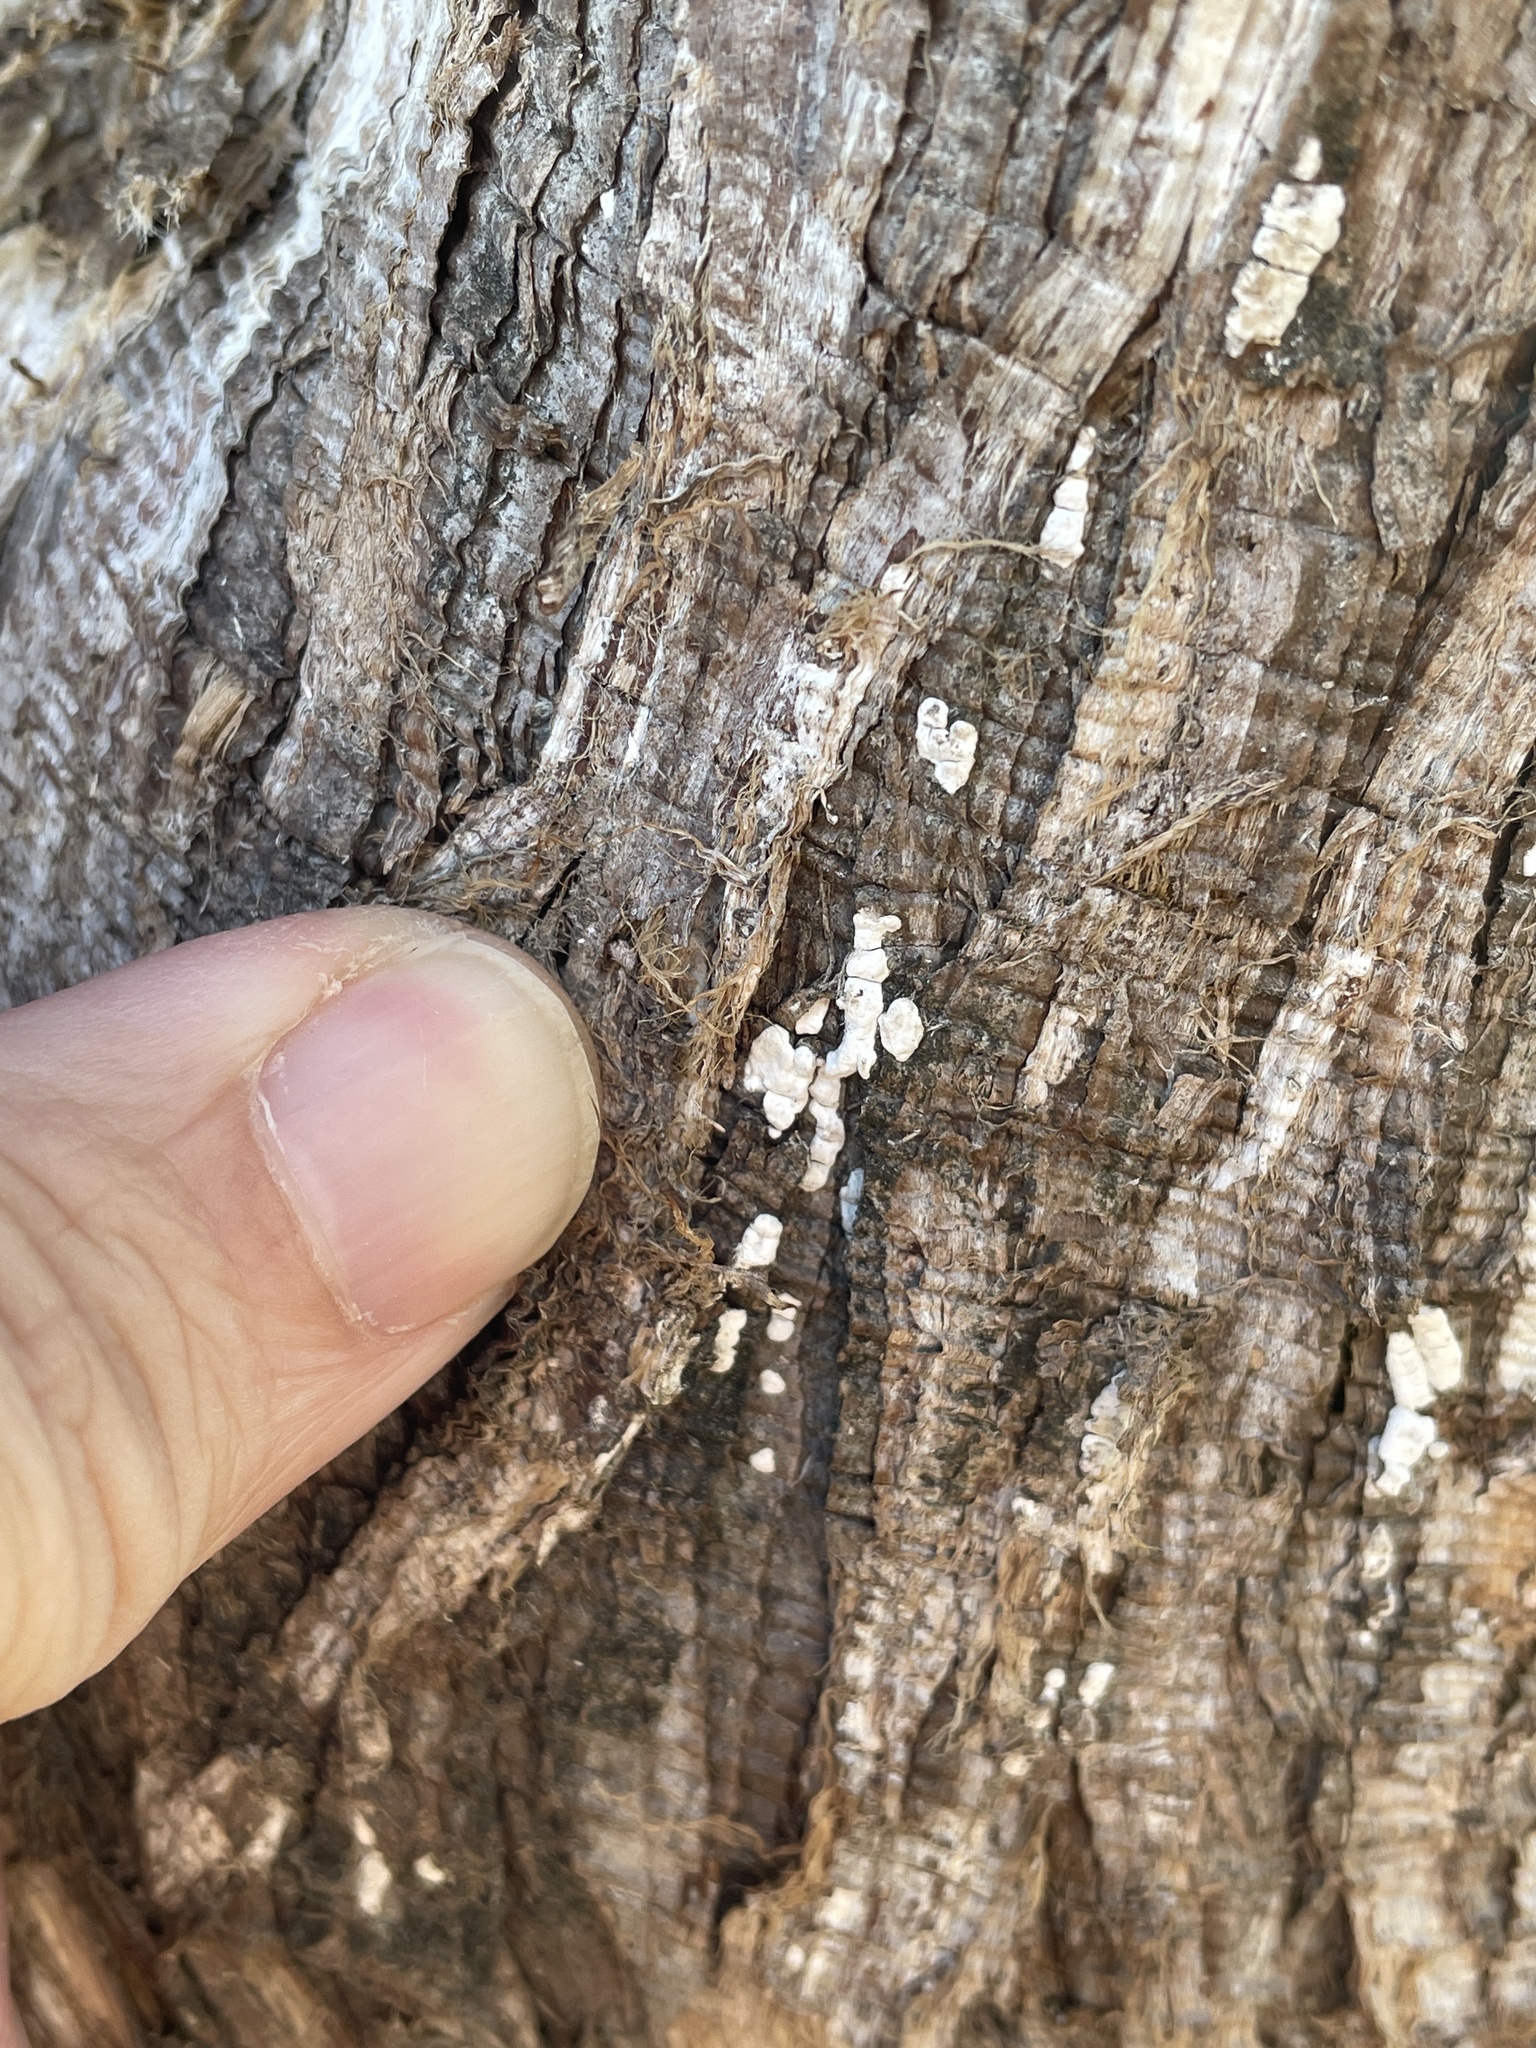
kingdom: Fungi
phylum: Basidiomycota
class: Agaricomycetes
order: Agaricales
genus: Dendrothele
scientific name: Dendrothele nivosa
